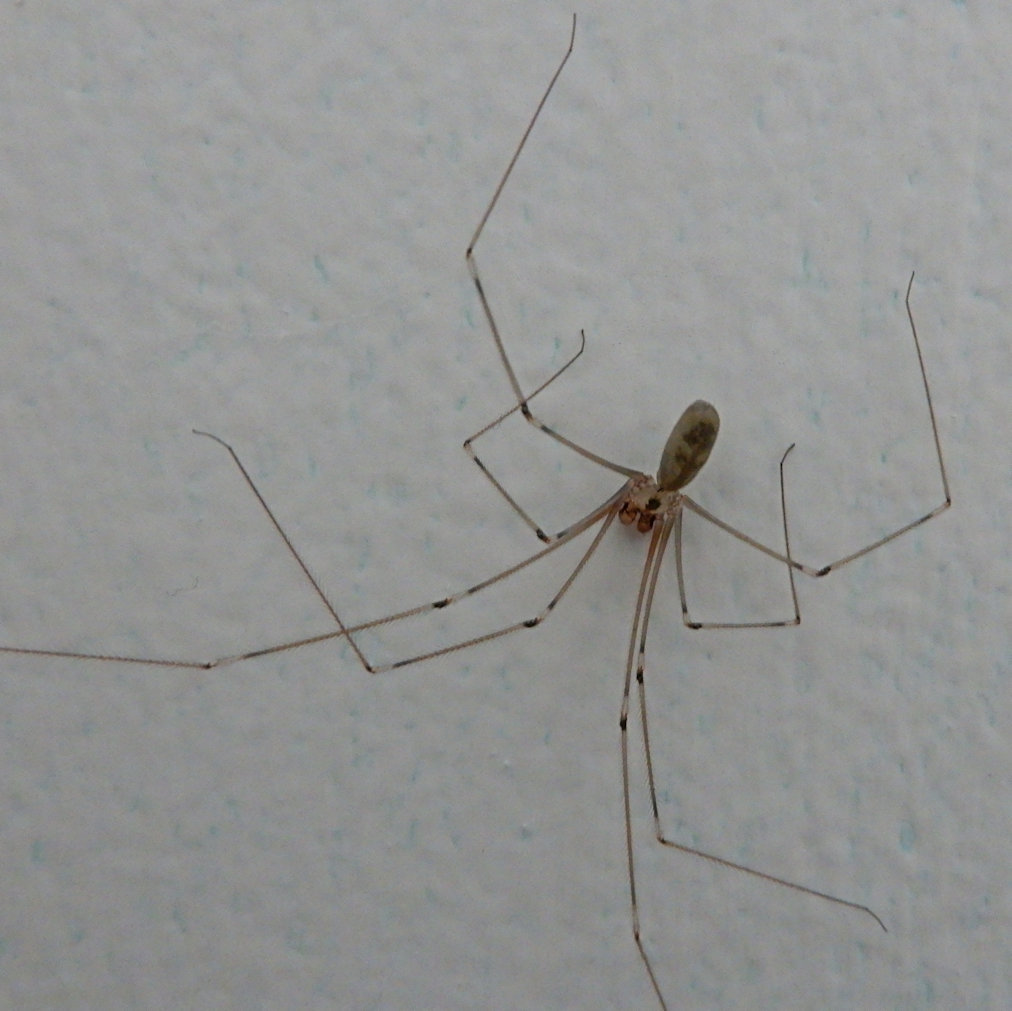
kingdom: Animalia
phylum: Arthropoda
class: Arachnida
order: Araneae
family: Pholcidae
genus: Pholcus
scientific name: Pholcus phalangioides
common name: Longbodied cellar spider
